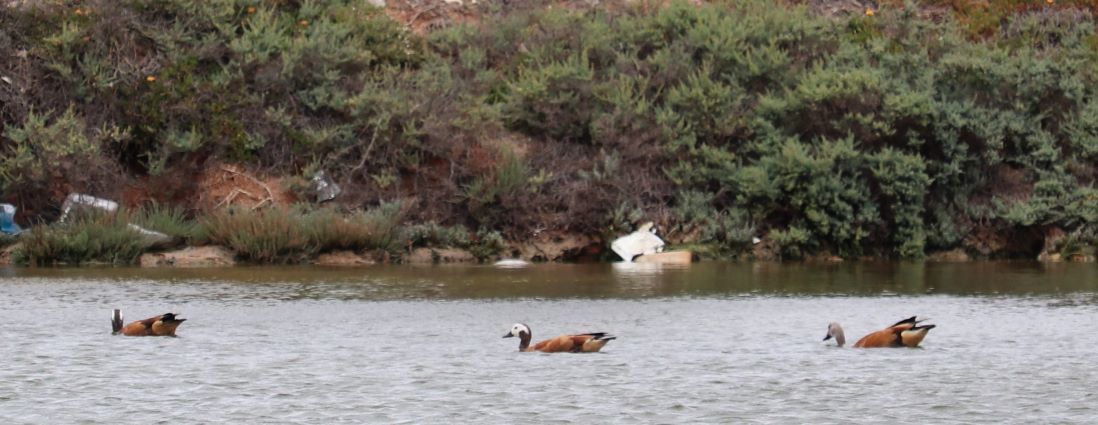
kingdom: Animalia
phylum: Chordata
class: Aves
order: Anseriformes
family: Anatidae
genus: Tadorna
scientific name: Tadorna cana
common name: South african shelduck
